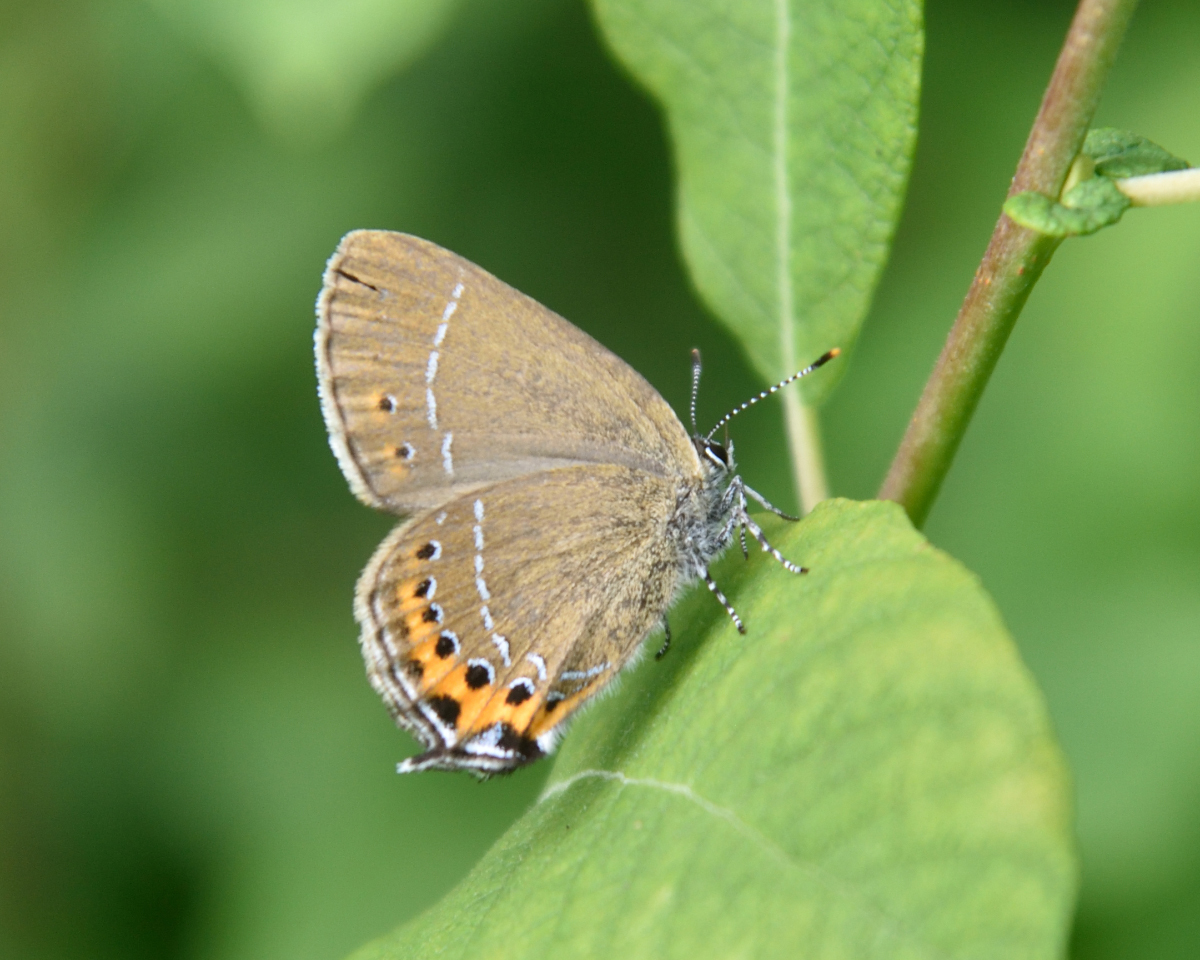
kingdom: Animalia
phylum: Arthropoda
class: Insecta
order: Lepidoptera
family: Lycaenidae
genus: Fixsenia
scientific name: Fixsenia pruni
